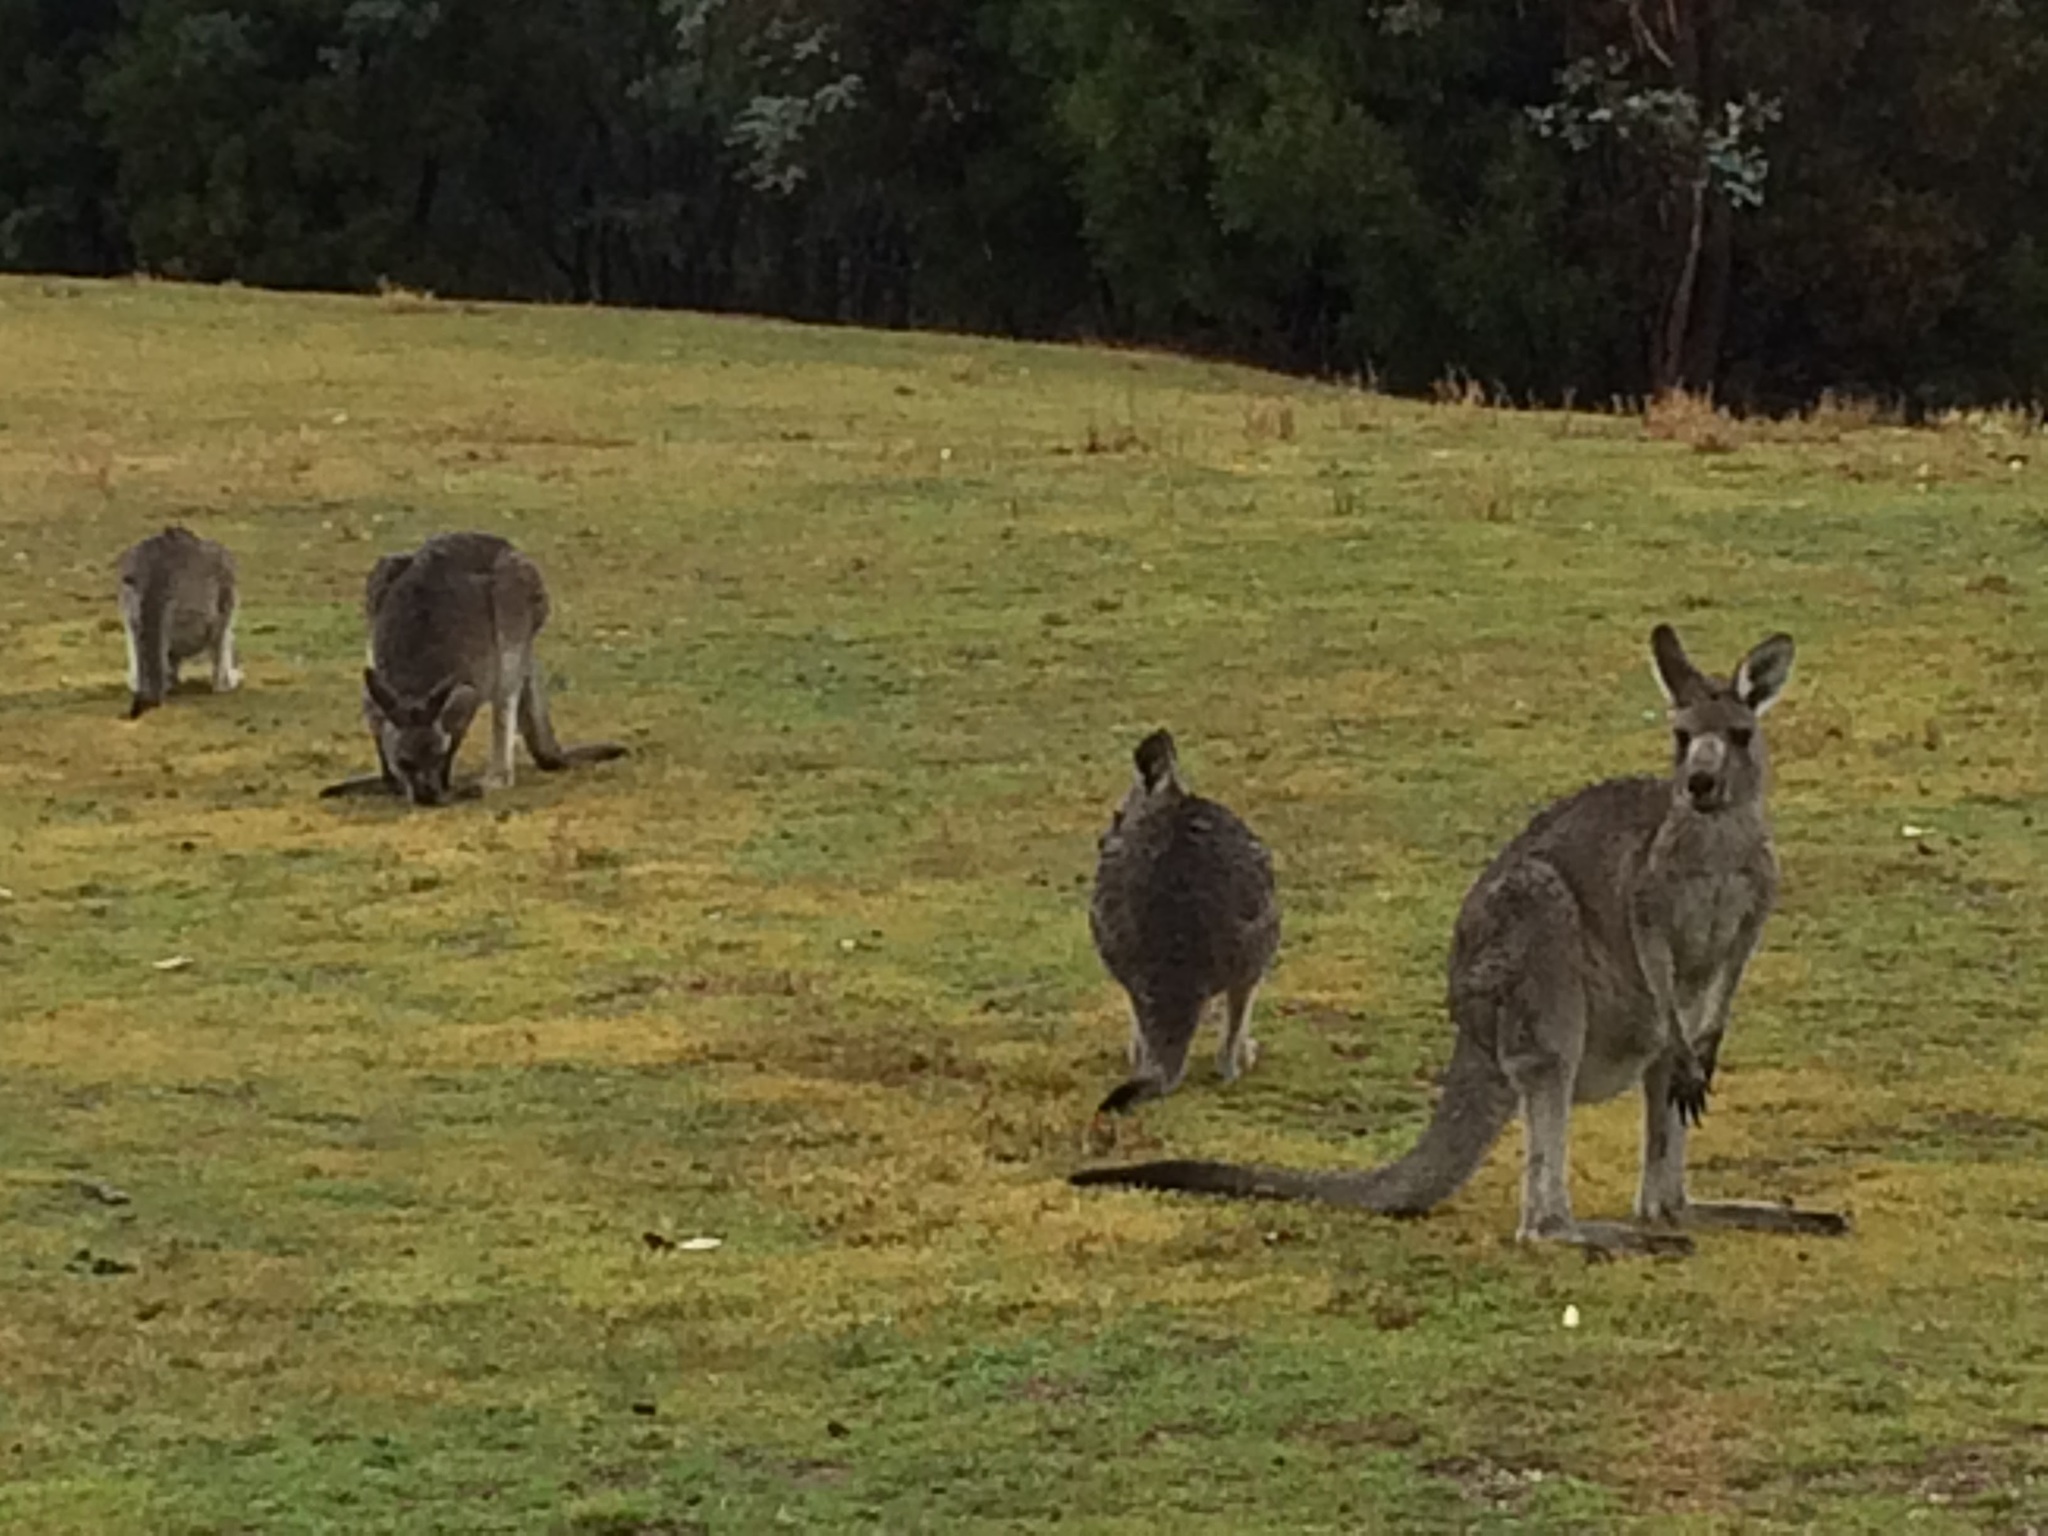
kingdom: Animalia
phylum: Chordata
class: Mammalia
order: Diprotodontia
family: Macropodidae
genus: Macropus
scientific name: Macropus giganteus
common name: Eastern grey kangaroo
